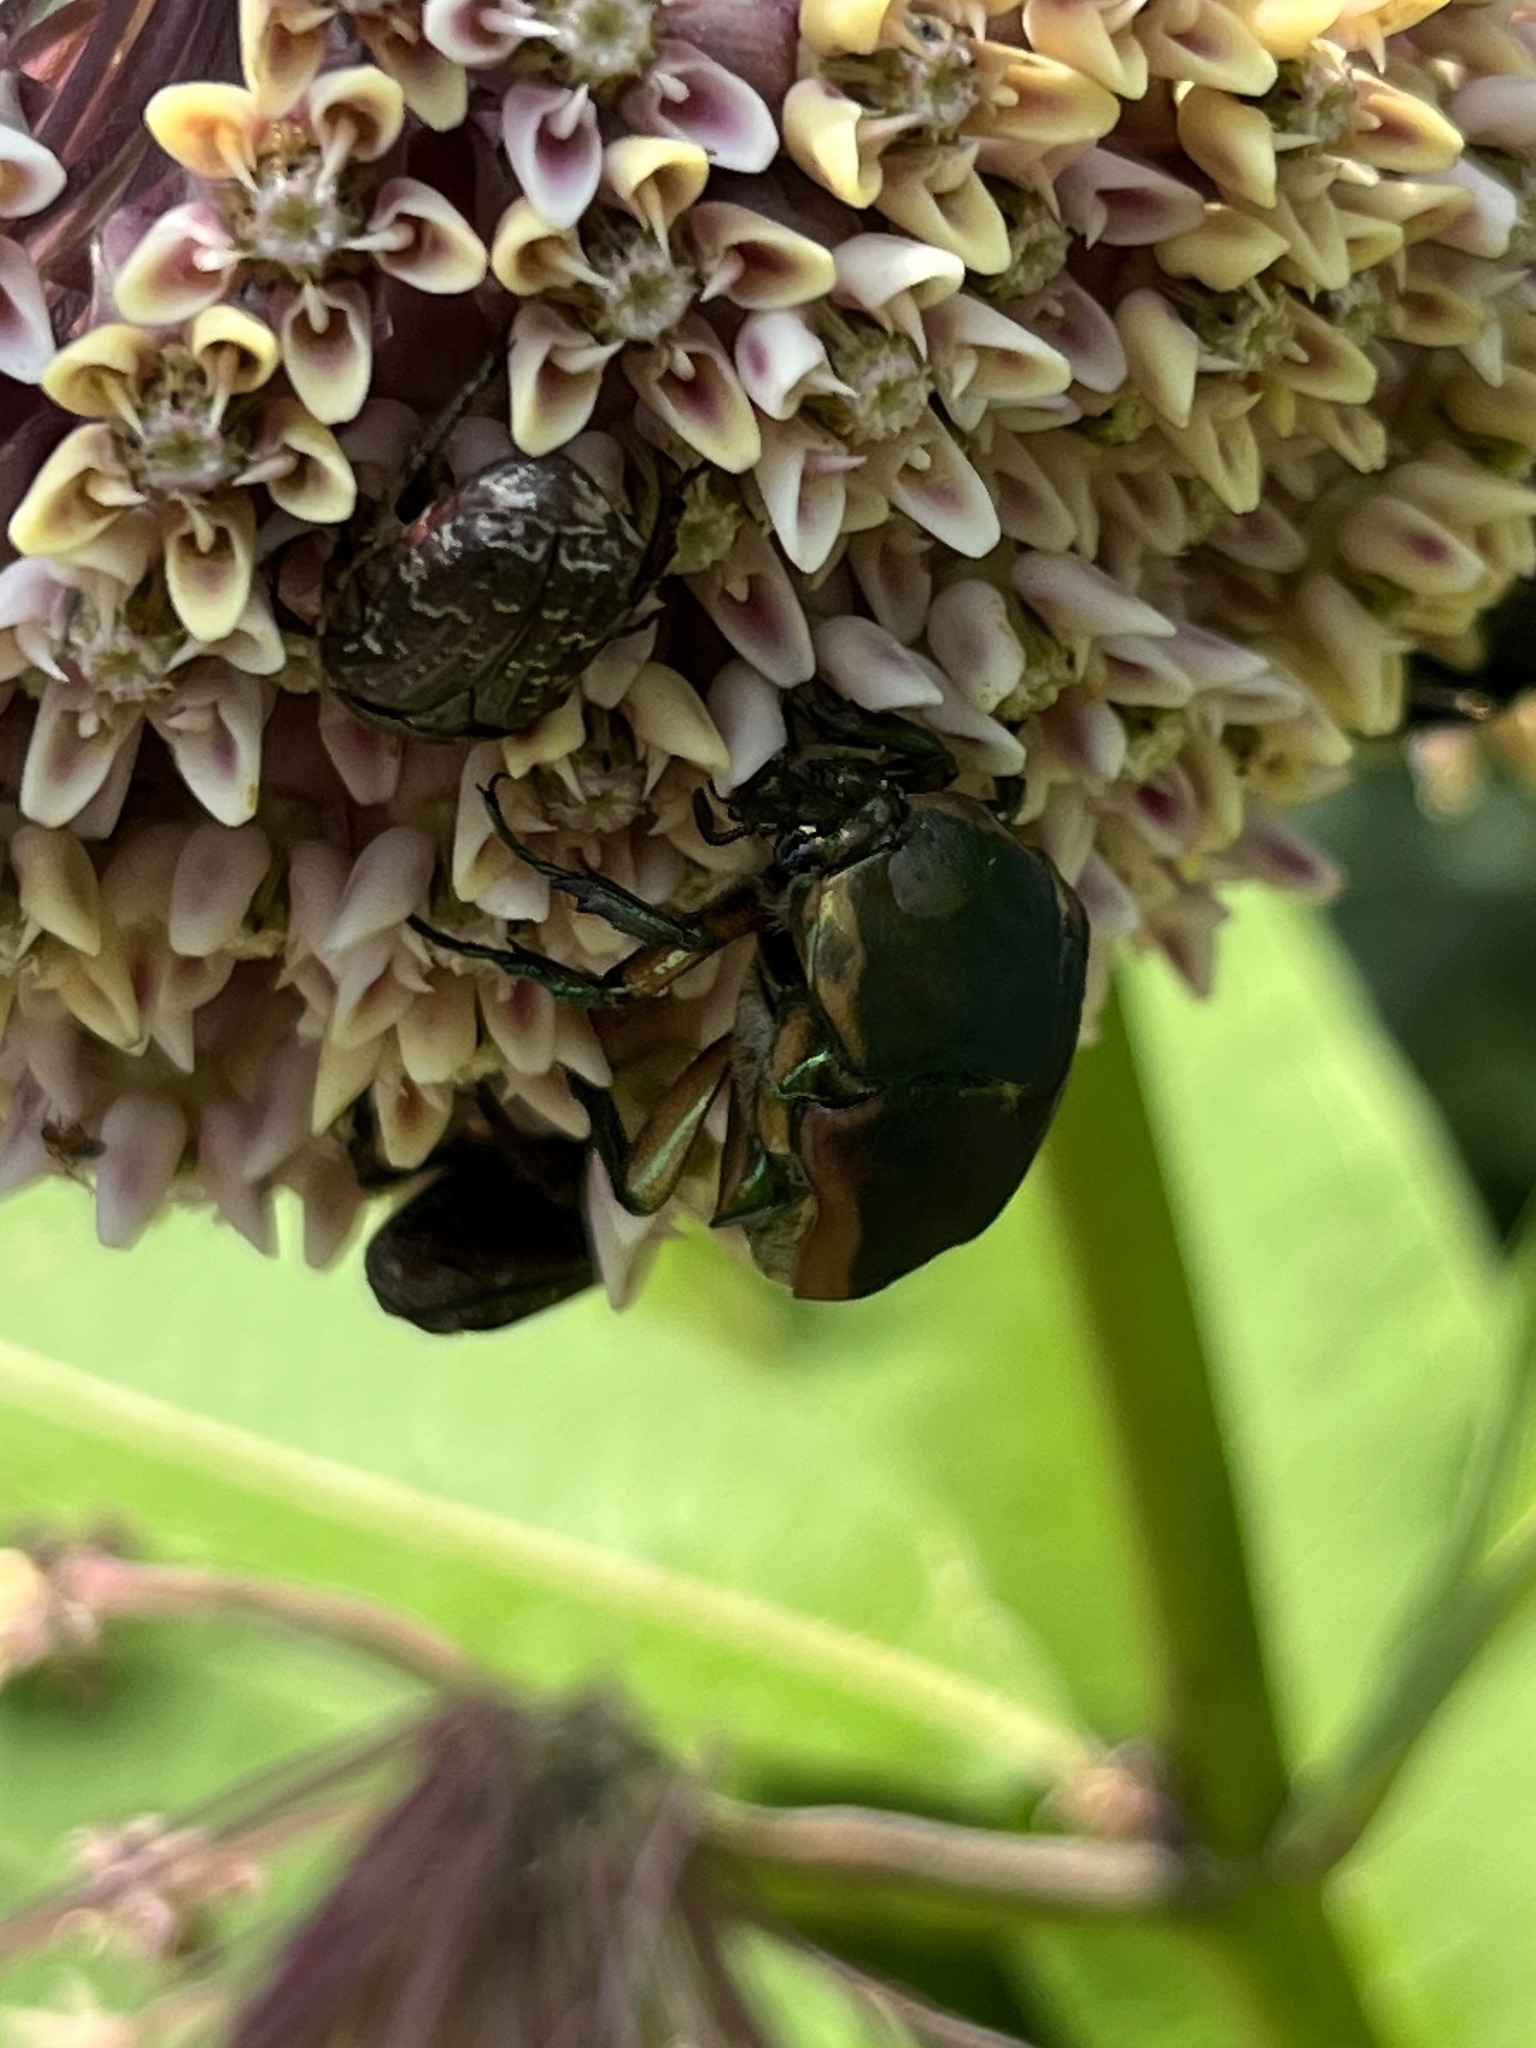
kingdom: Animalia
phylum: Arthropoda
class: Insecta
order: Coleoptera
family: Scarabaeidae
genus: Cotinis
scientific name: Cotinis nitida
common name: Common green june beetle
